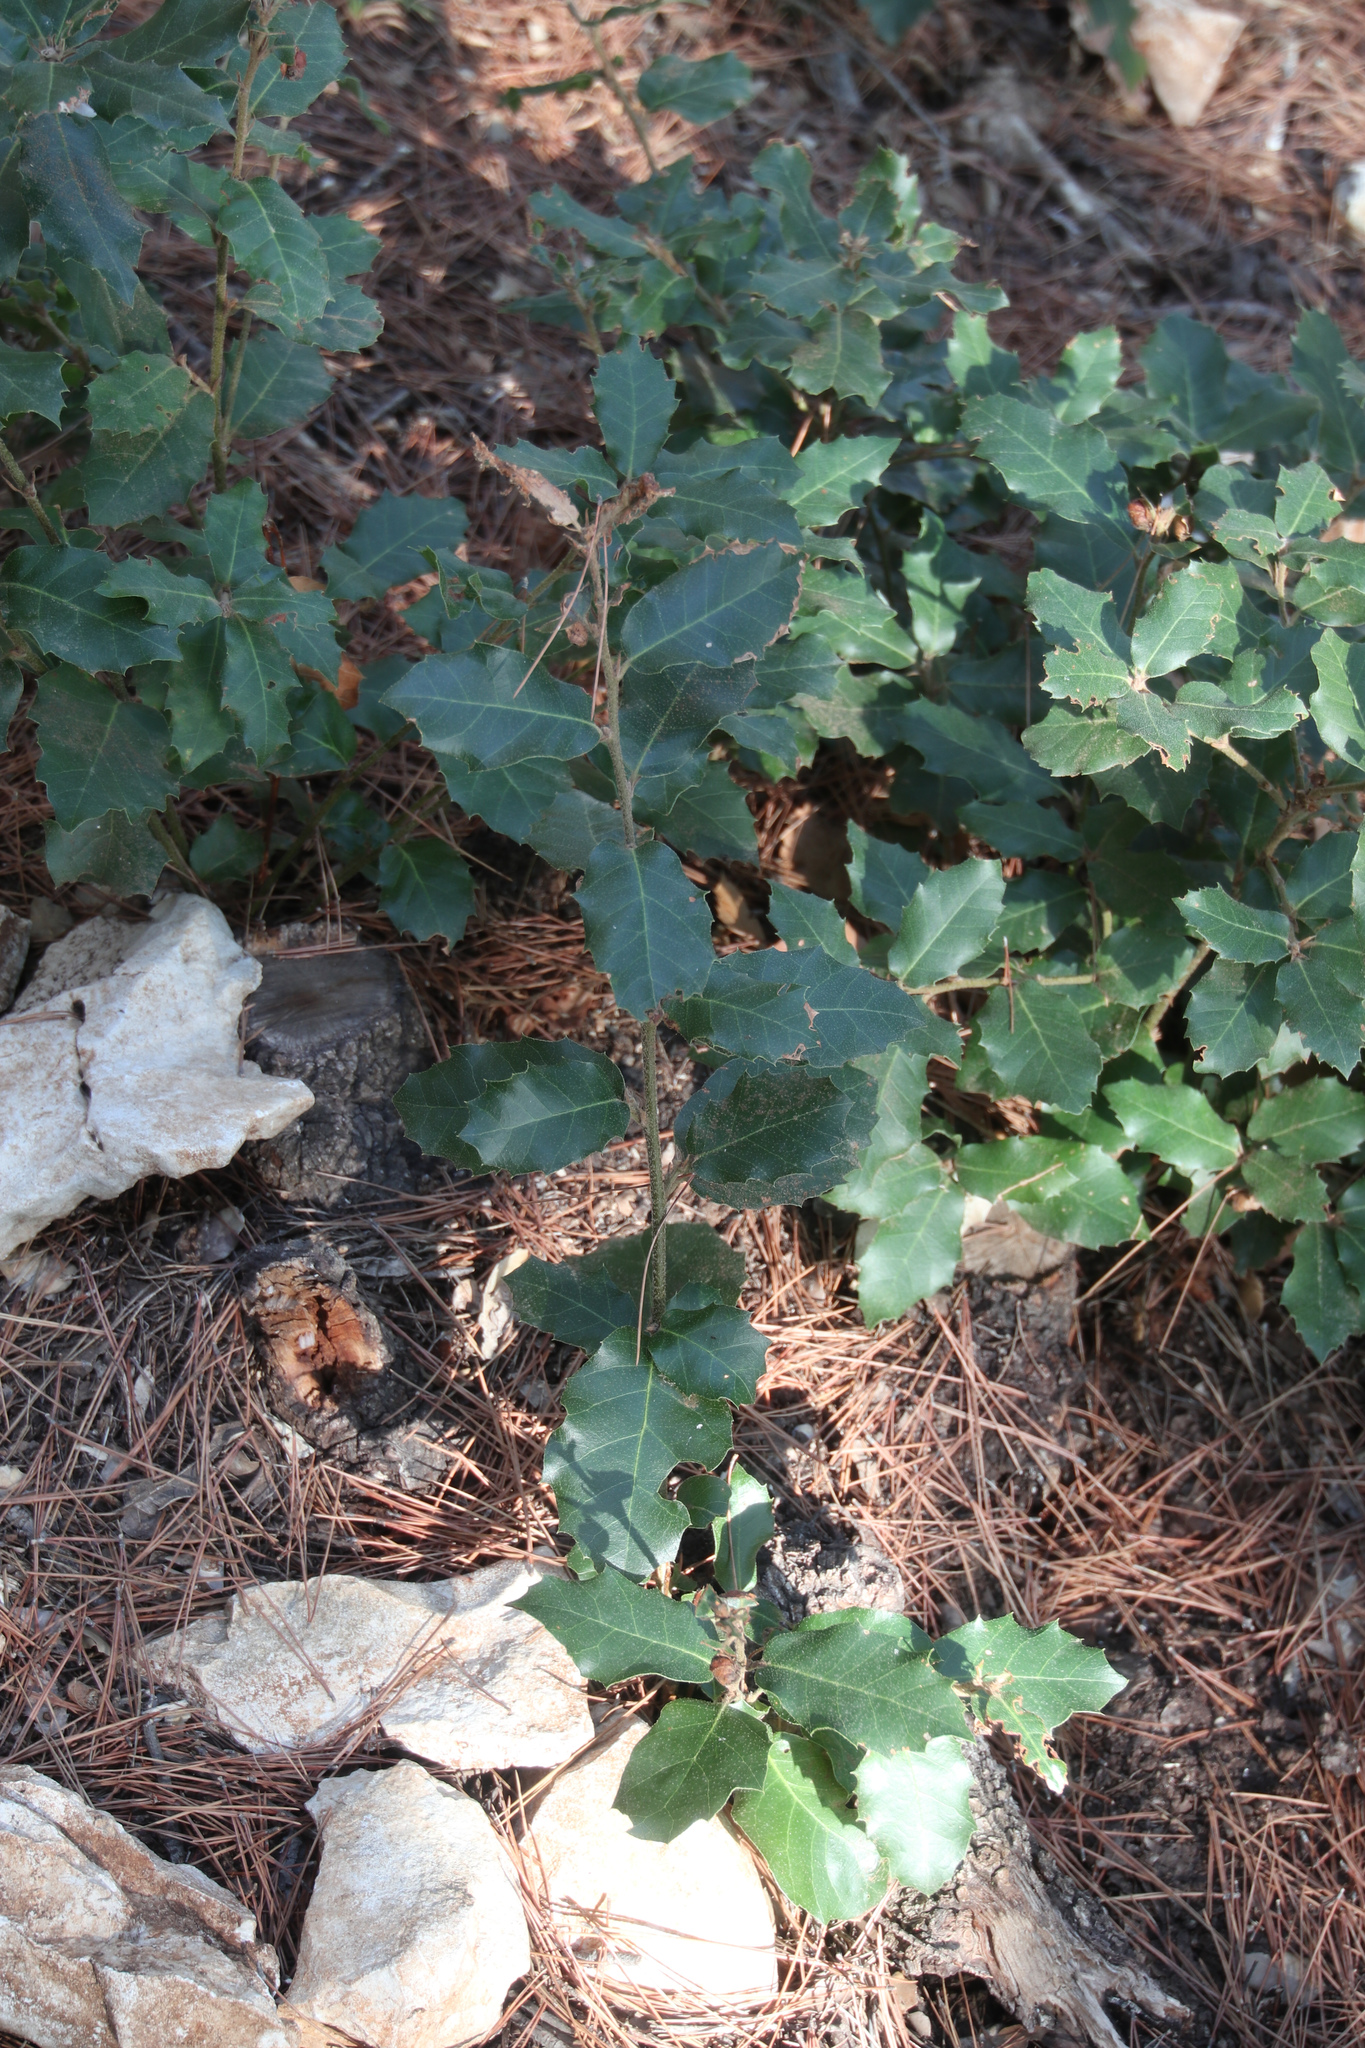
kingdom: Plantae
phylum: Tracheophyta
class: Magnoliopsida
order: Fagales
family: Fagaceae
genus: Quercus
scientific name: Quercus coccifera
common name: Kermes oak
